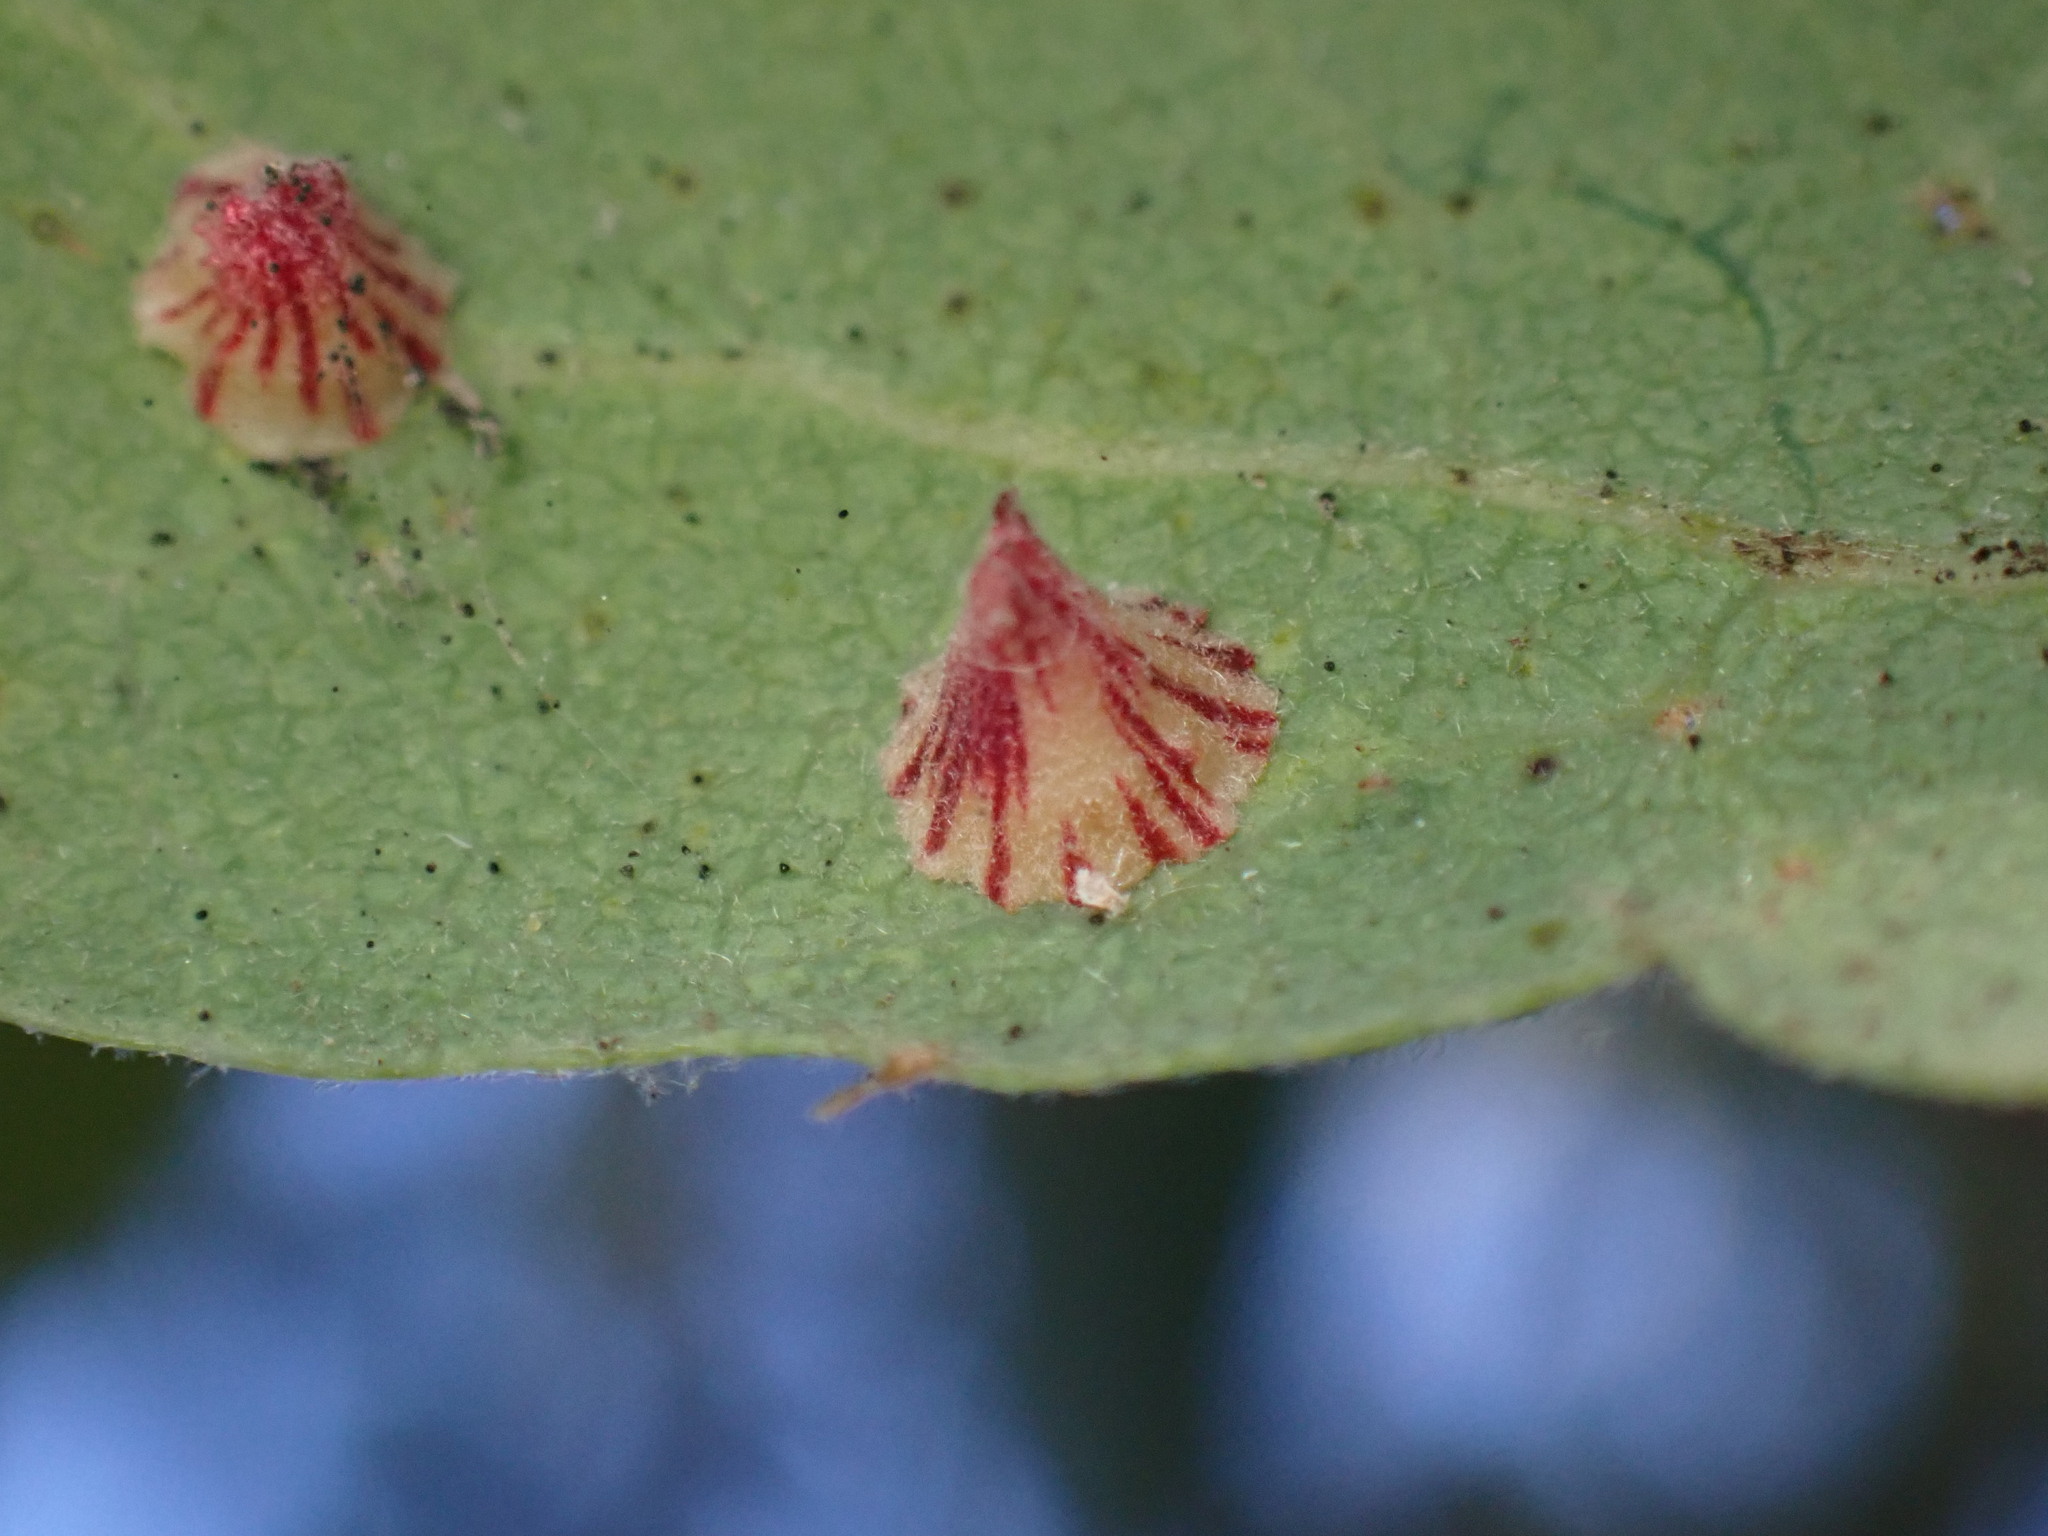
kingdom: Animalia
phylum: Arthropoda
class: Insecta
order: Hymenoptera
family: Cynipidae
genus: Andricus
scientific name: Andricus
